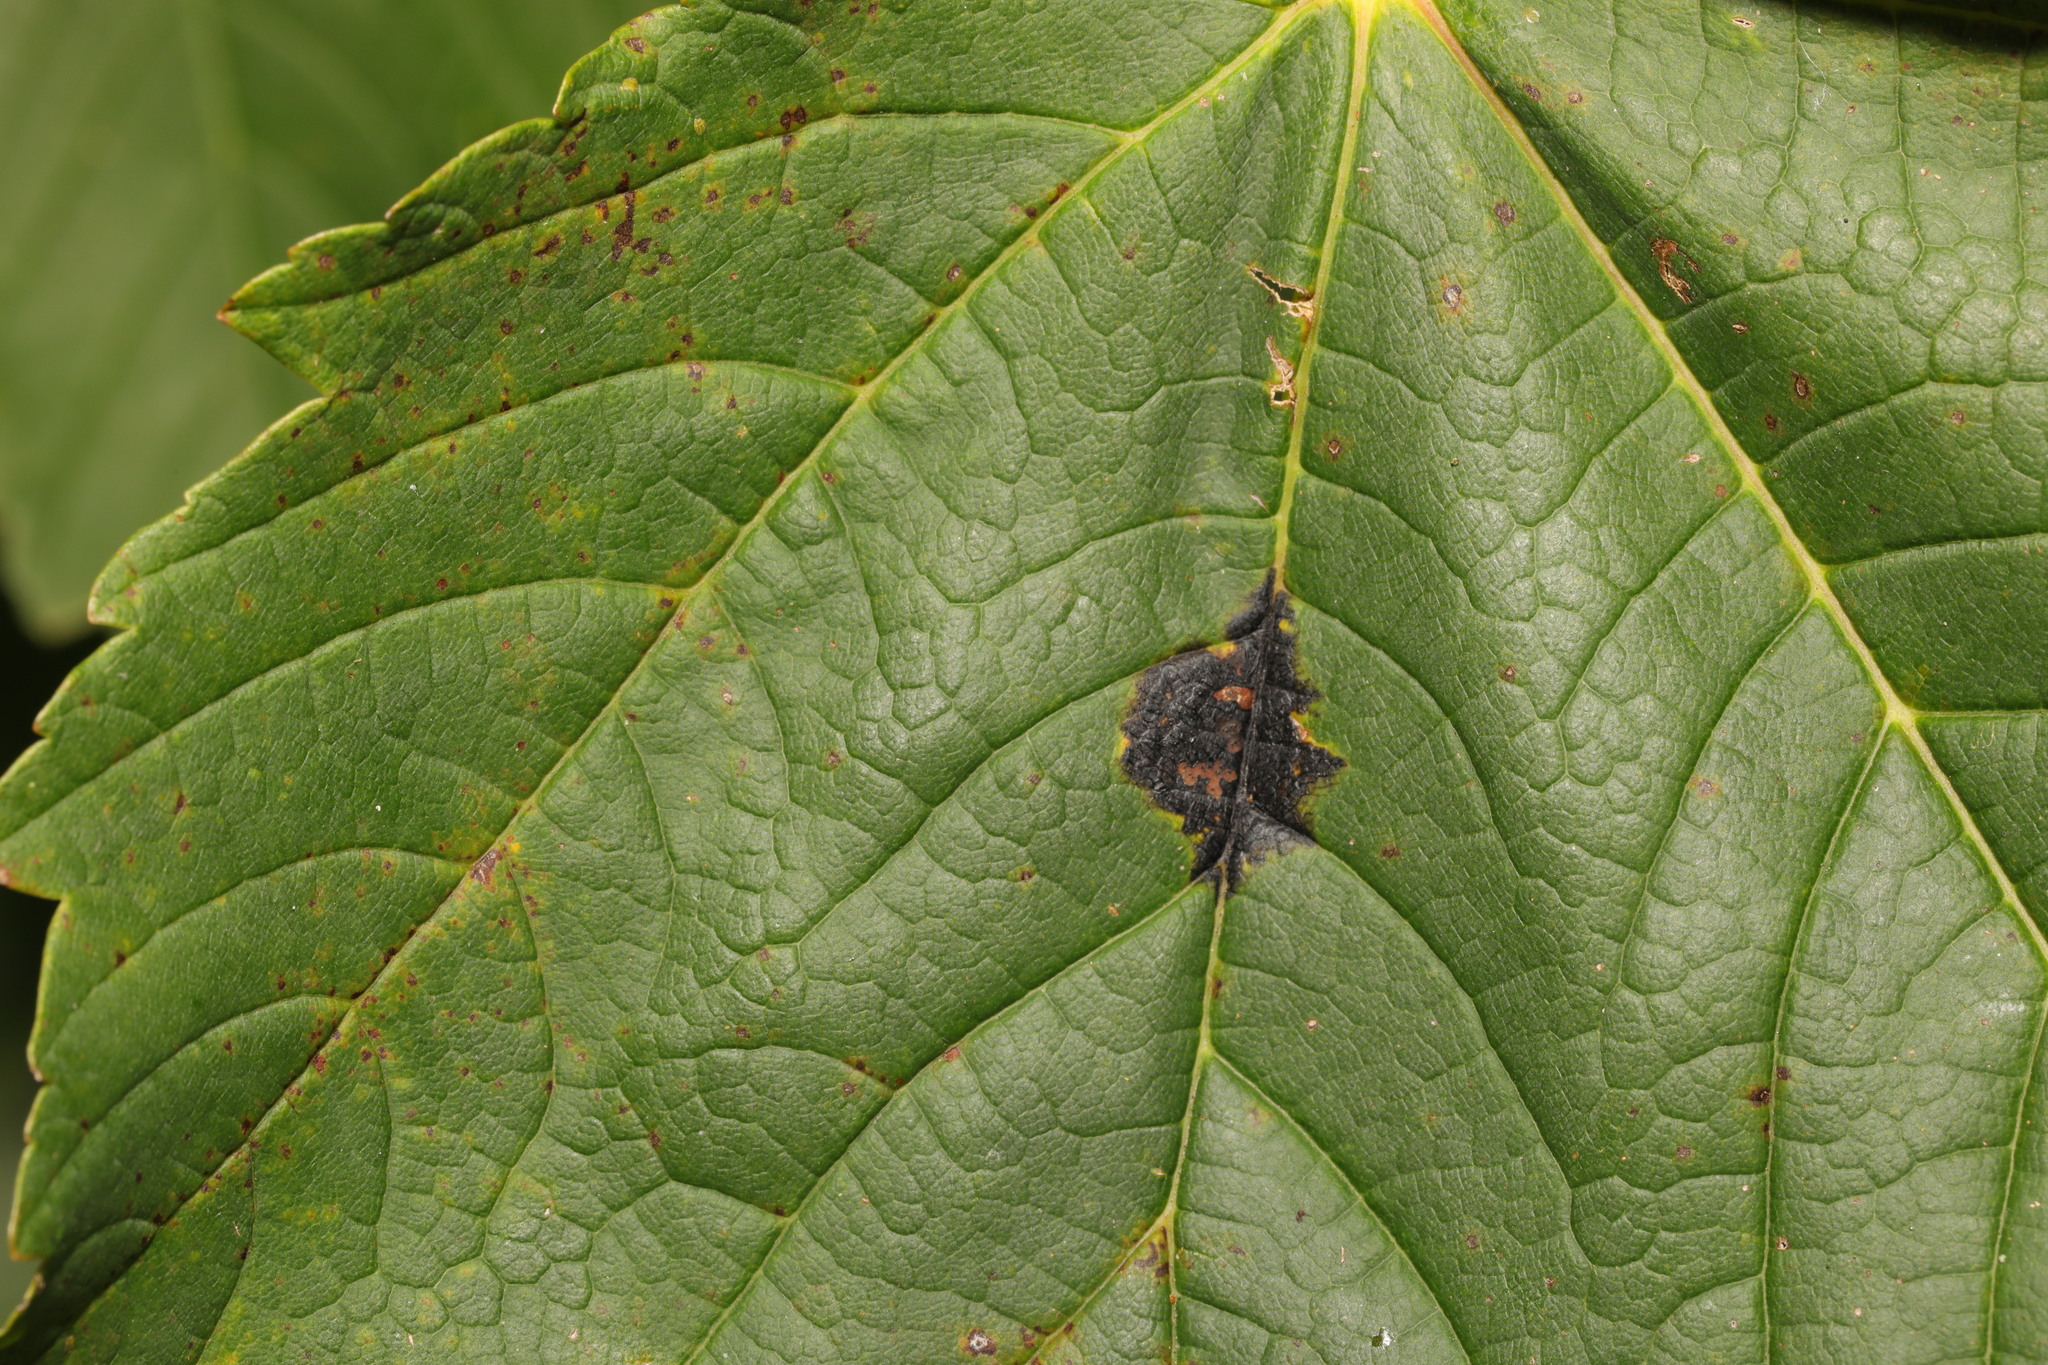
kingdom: Fungi
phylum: Ascomycota
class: Leotiomycetes
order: Rhytismatales
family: Rhytismataceae
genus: Rhytisma
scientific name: Rhytisma acerinum
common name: European tar spot
